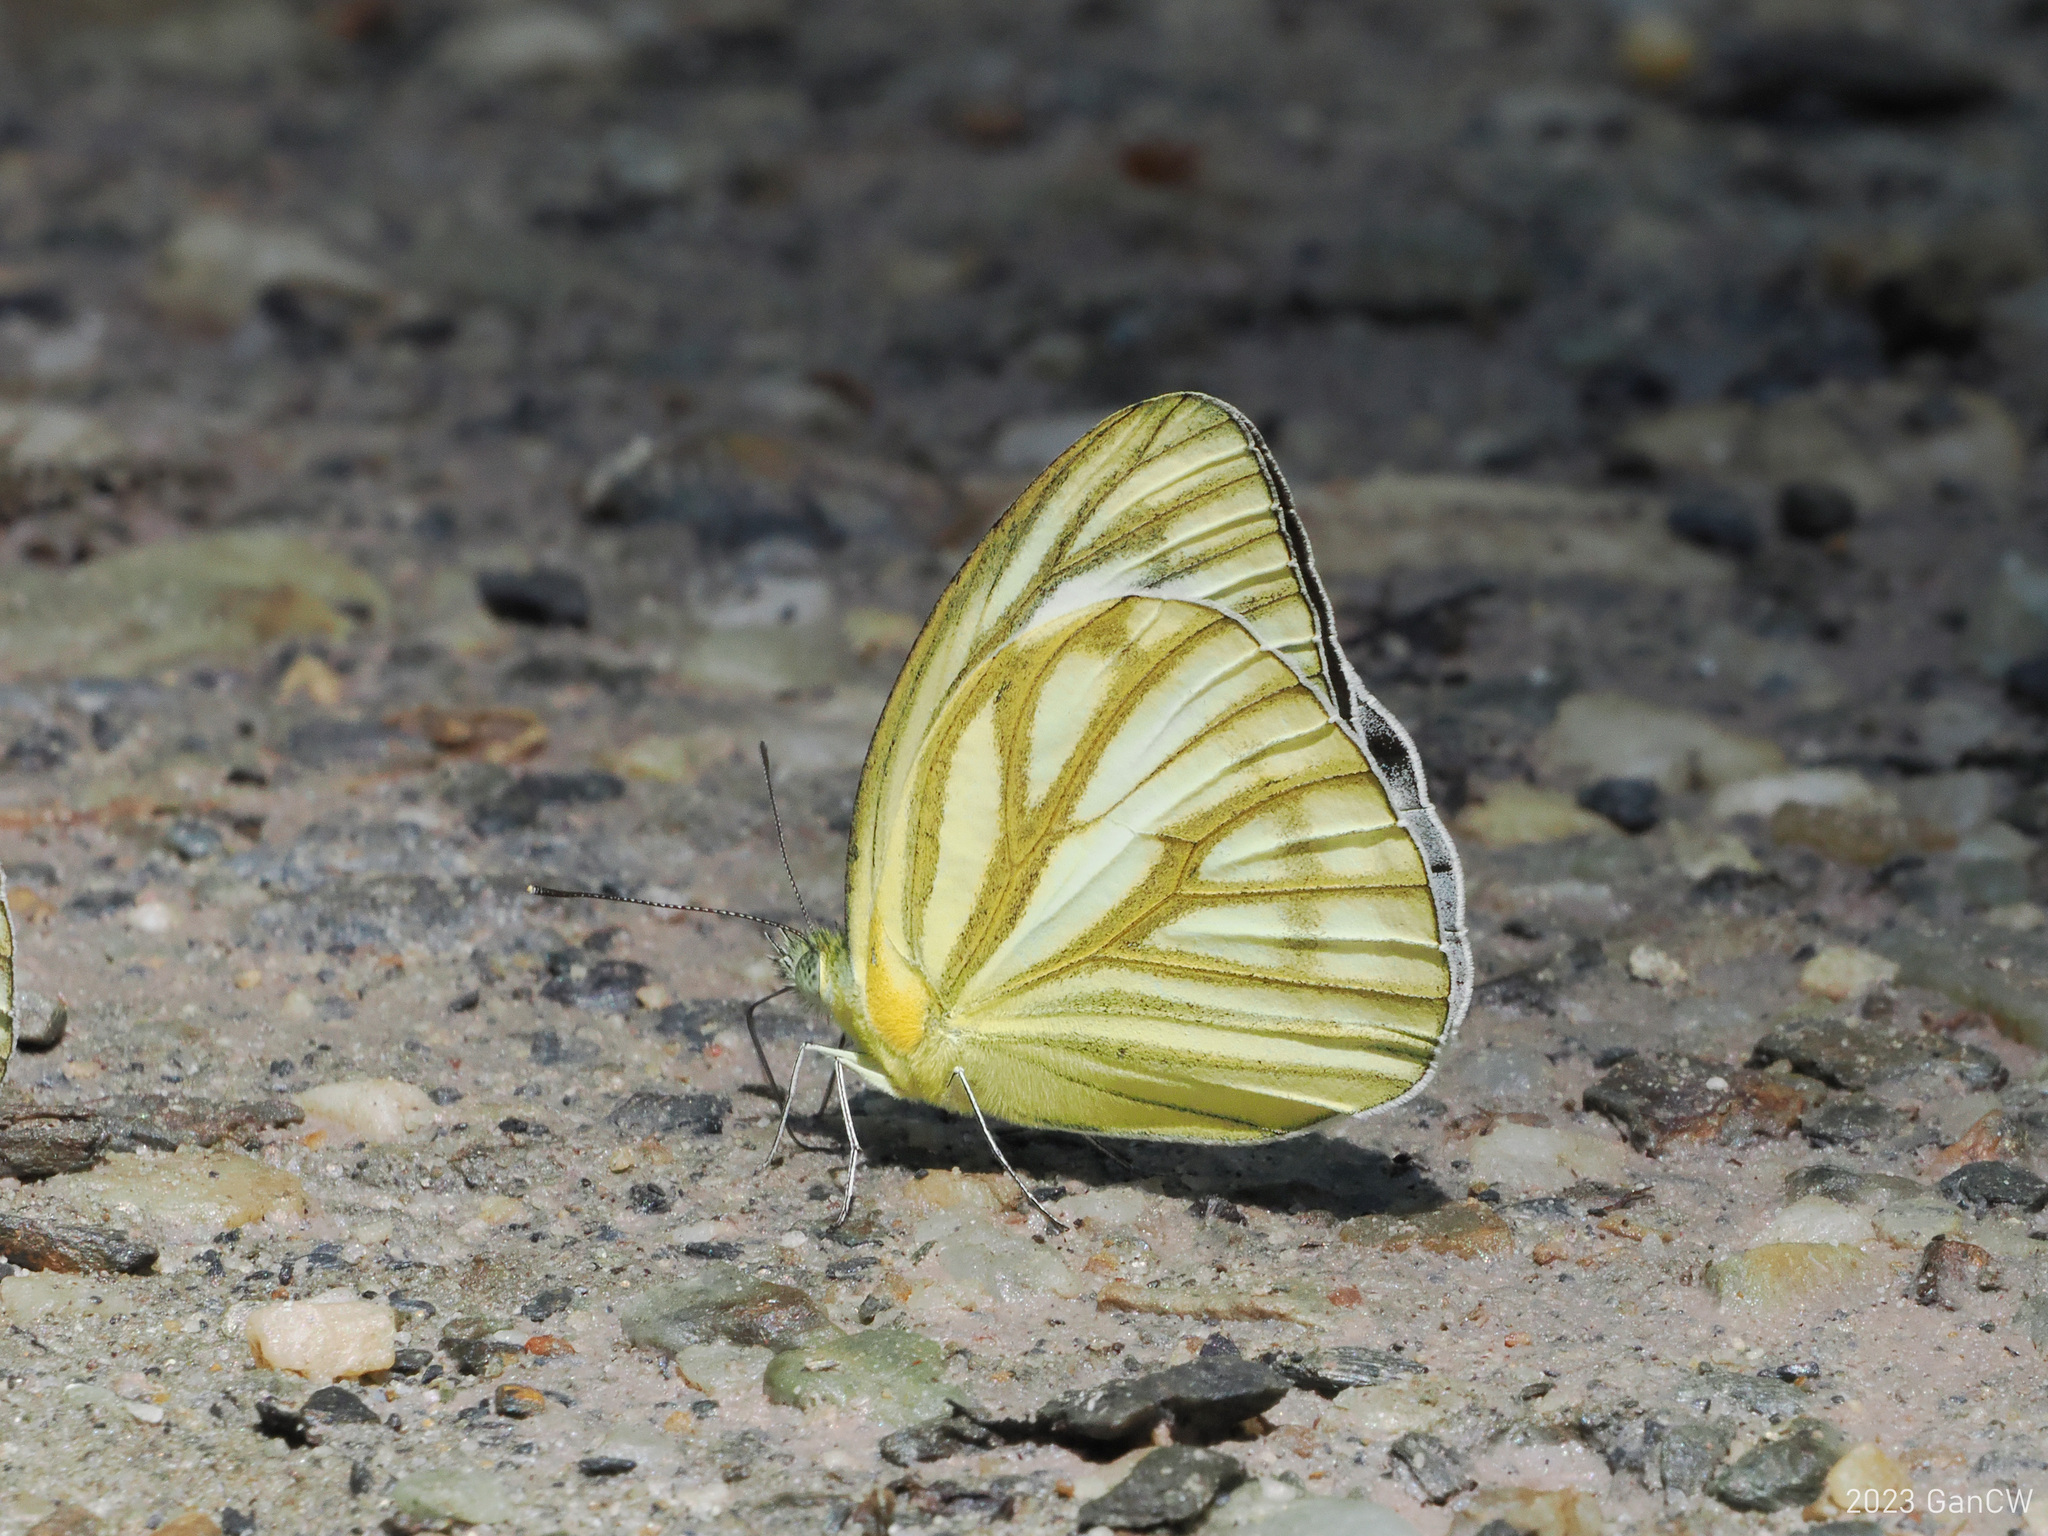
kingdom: Animalia
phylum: Arthropoda
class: Insecta
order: Lepidoptera
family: Pieridae
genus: Cepora
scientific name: Cepora nerissa
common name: Common gull
